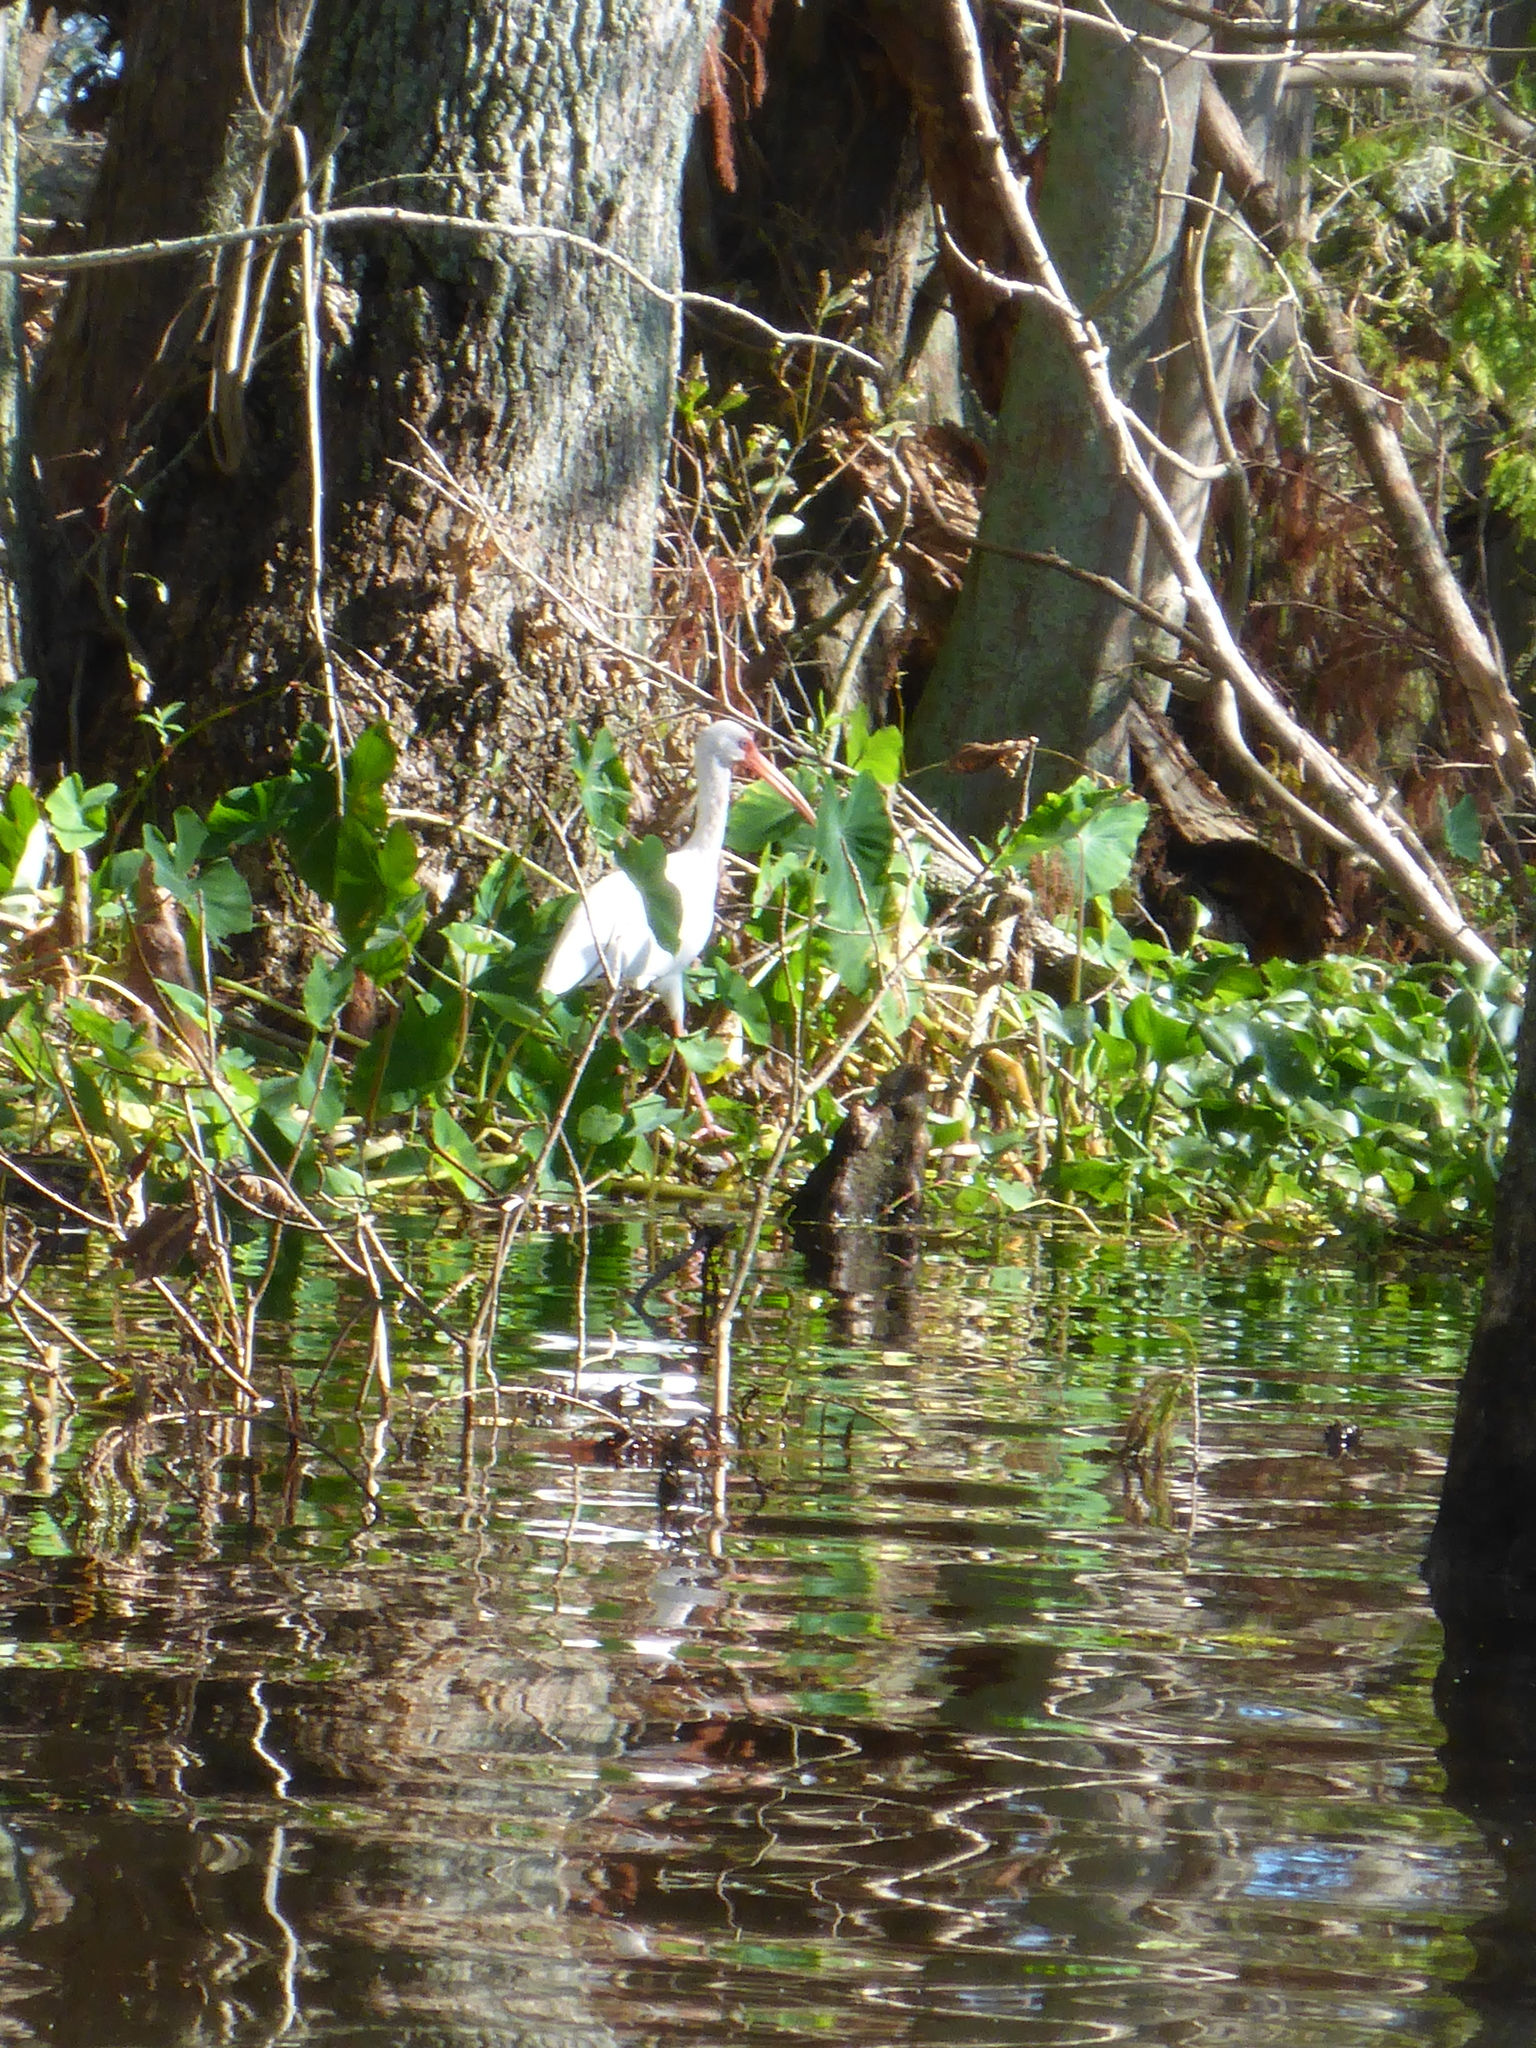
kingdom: Animalia
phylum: Chordata
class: Aves
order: Pelecaniformes
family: Threskiornithidae
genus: Eudocimus
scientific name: Eudocimus albus
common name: White ibis
